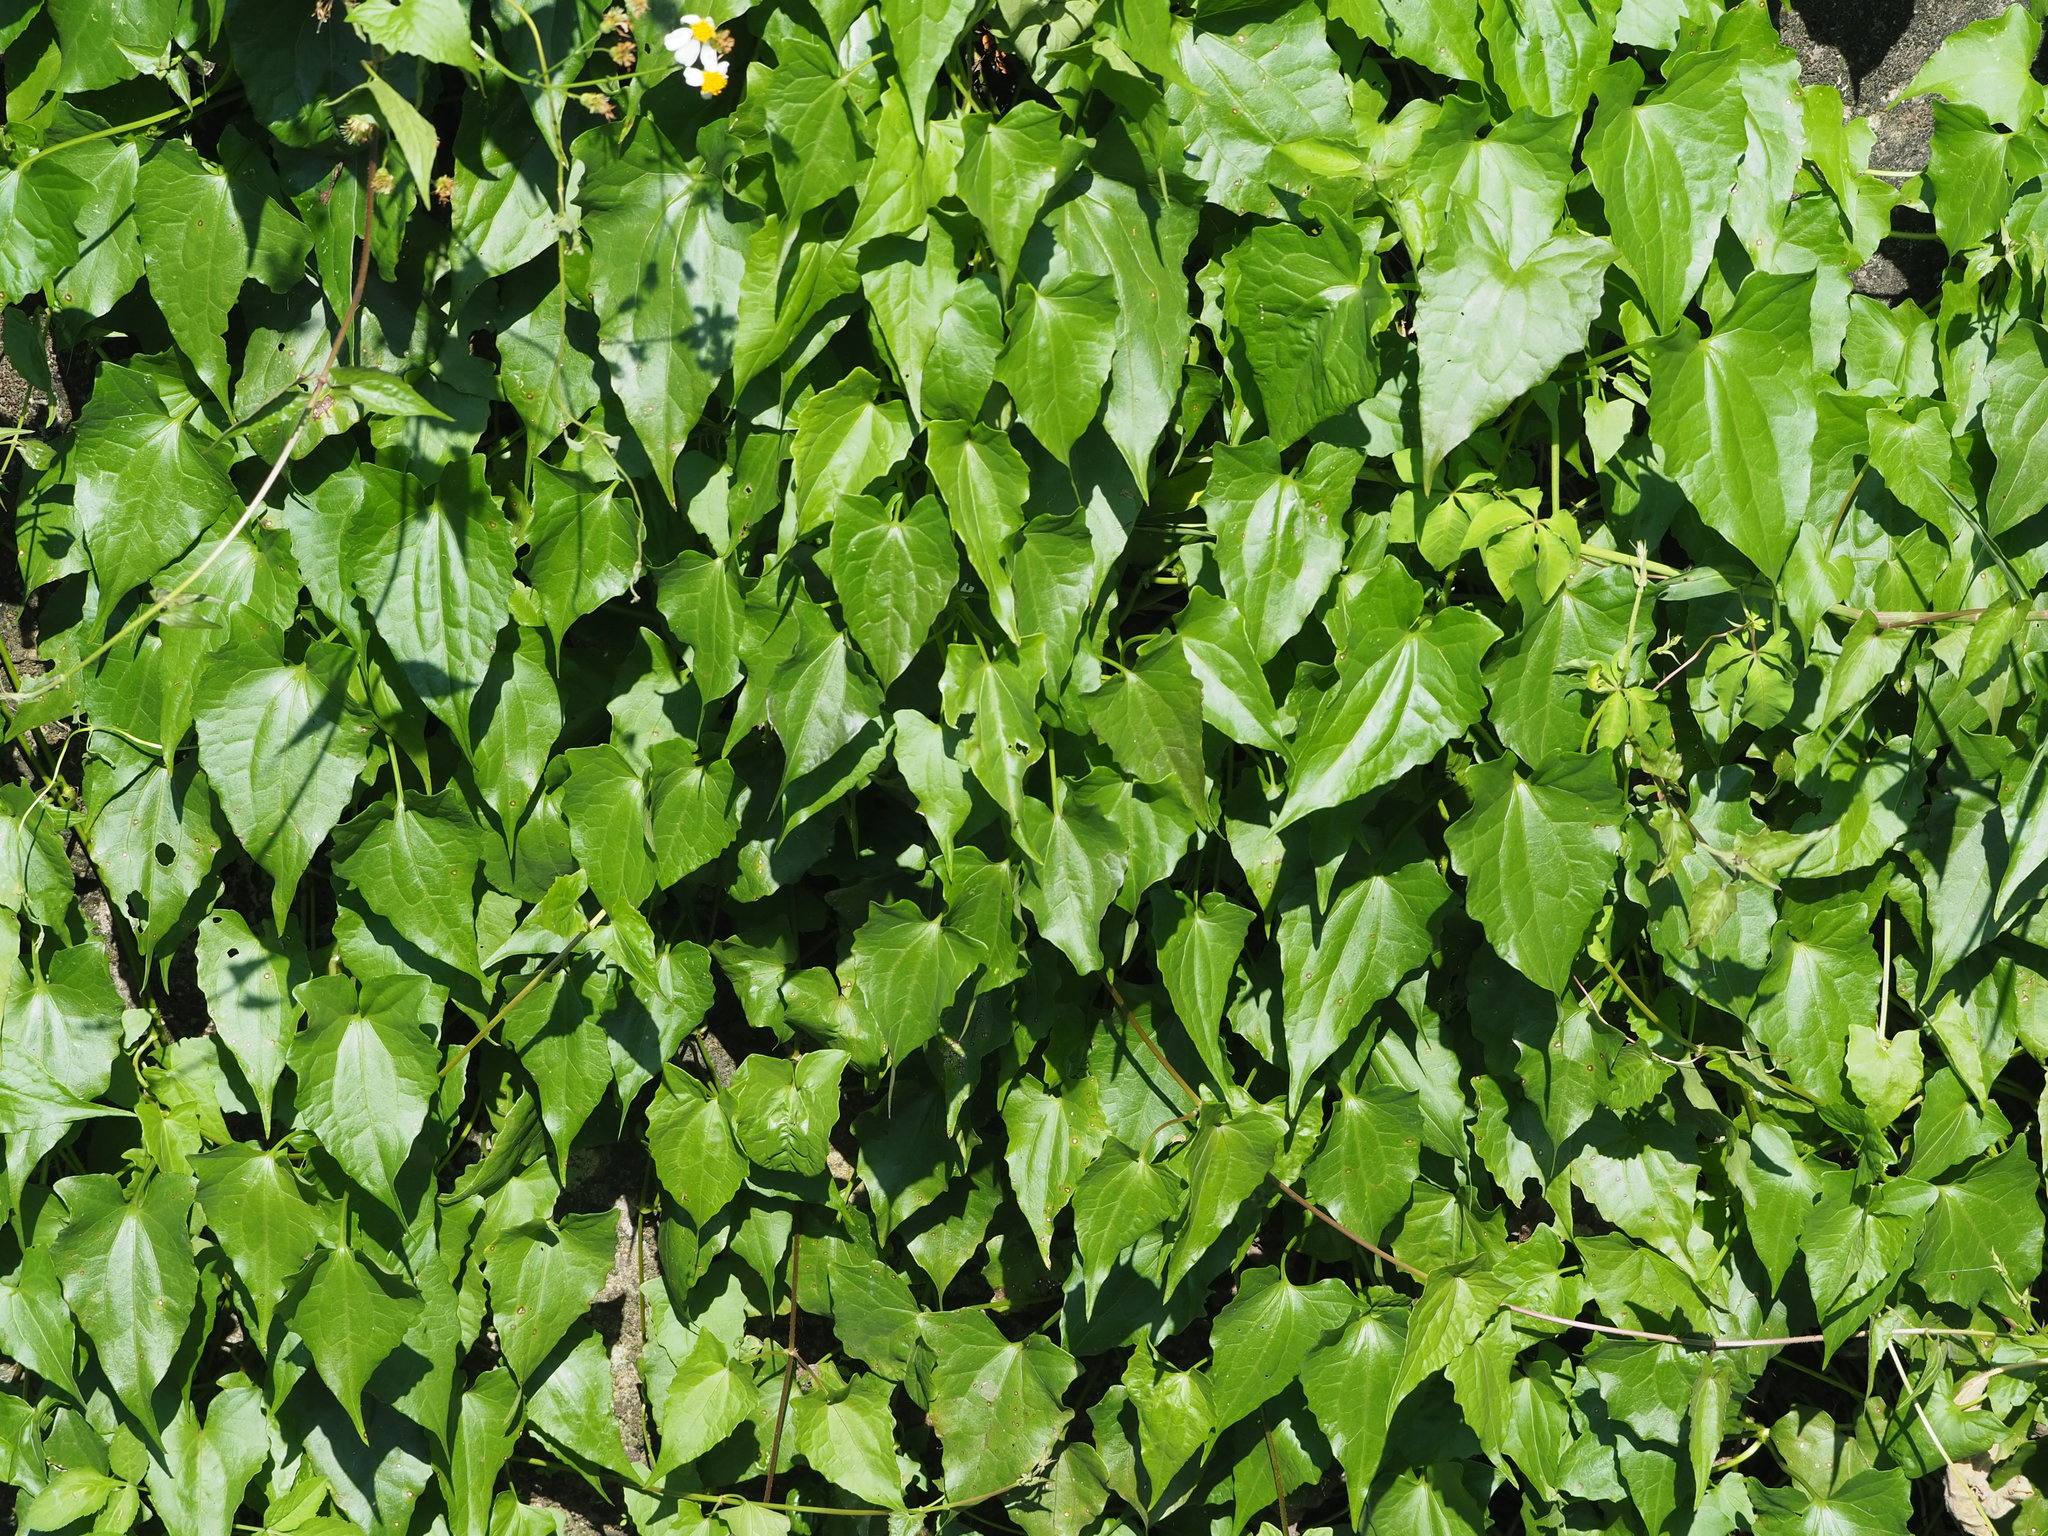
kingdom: Plantae
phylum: Tracheophyta
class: Magnoliopsida
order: Asterales
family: Asteraceae
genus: Mikania
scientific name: Mikania micrantha
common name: Mile-a-minute
